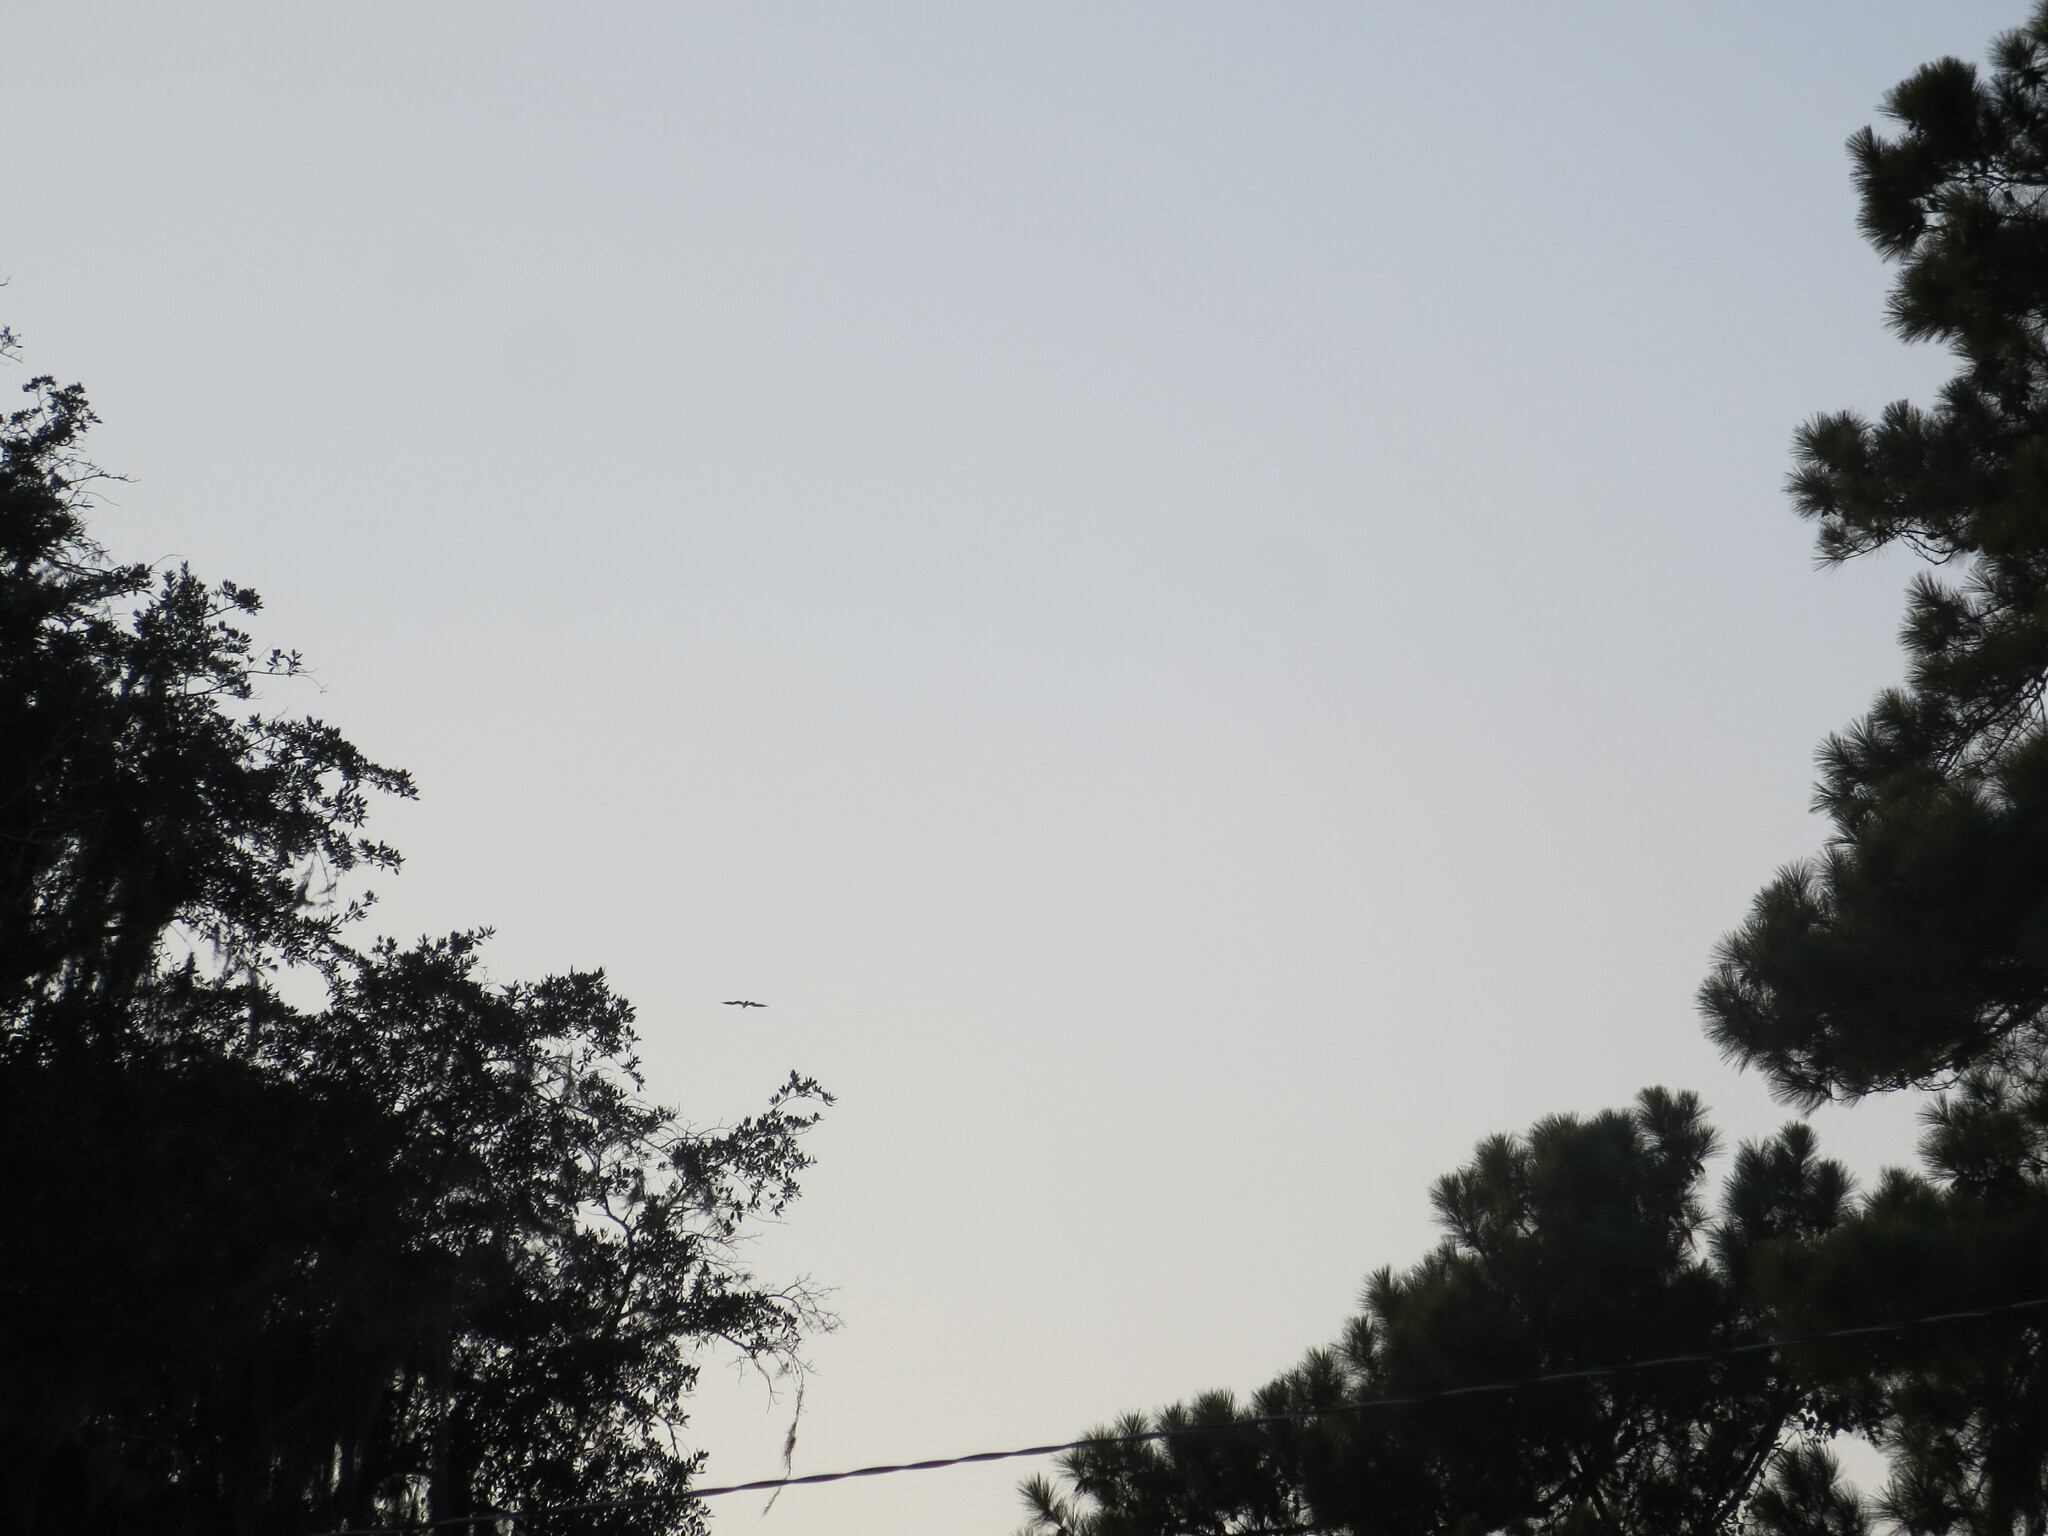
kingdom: Animalia
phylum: Chordata
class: Aves
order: Accipitriformes
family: Pandionidae
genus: Pandion
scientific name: Pandion haliaetus
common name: Osprey
